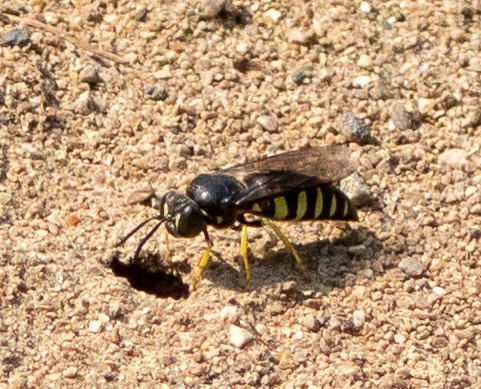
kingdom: Animalia
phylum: Arthropoda
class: Insecta
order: Hymenoptera
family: Crabronidae
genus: Bicyrtes
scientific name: Bicyrtes quadrifasciatus
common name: Four-banded stink bug hunter wasp
